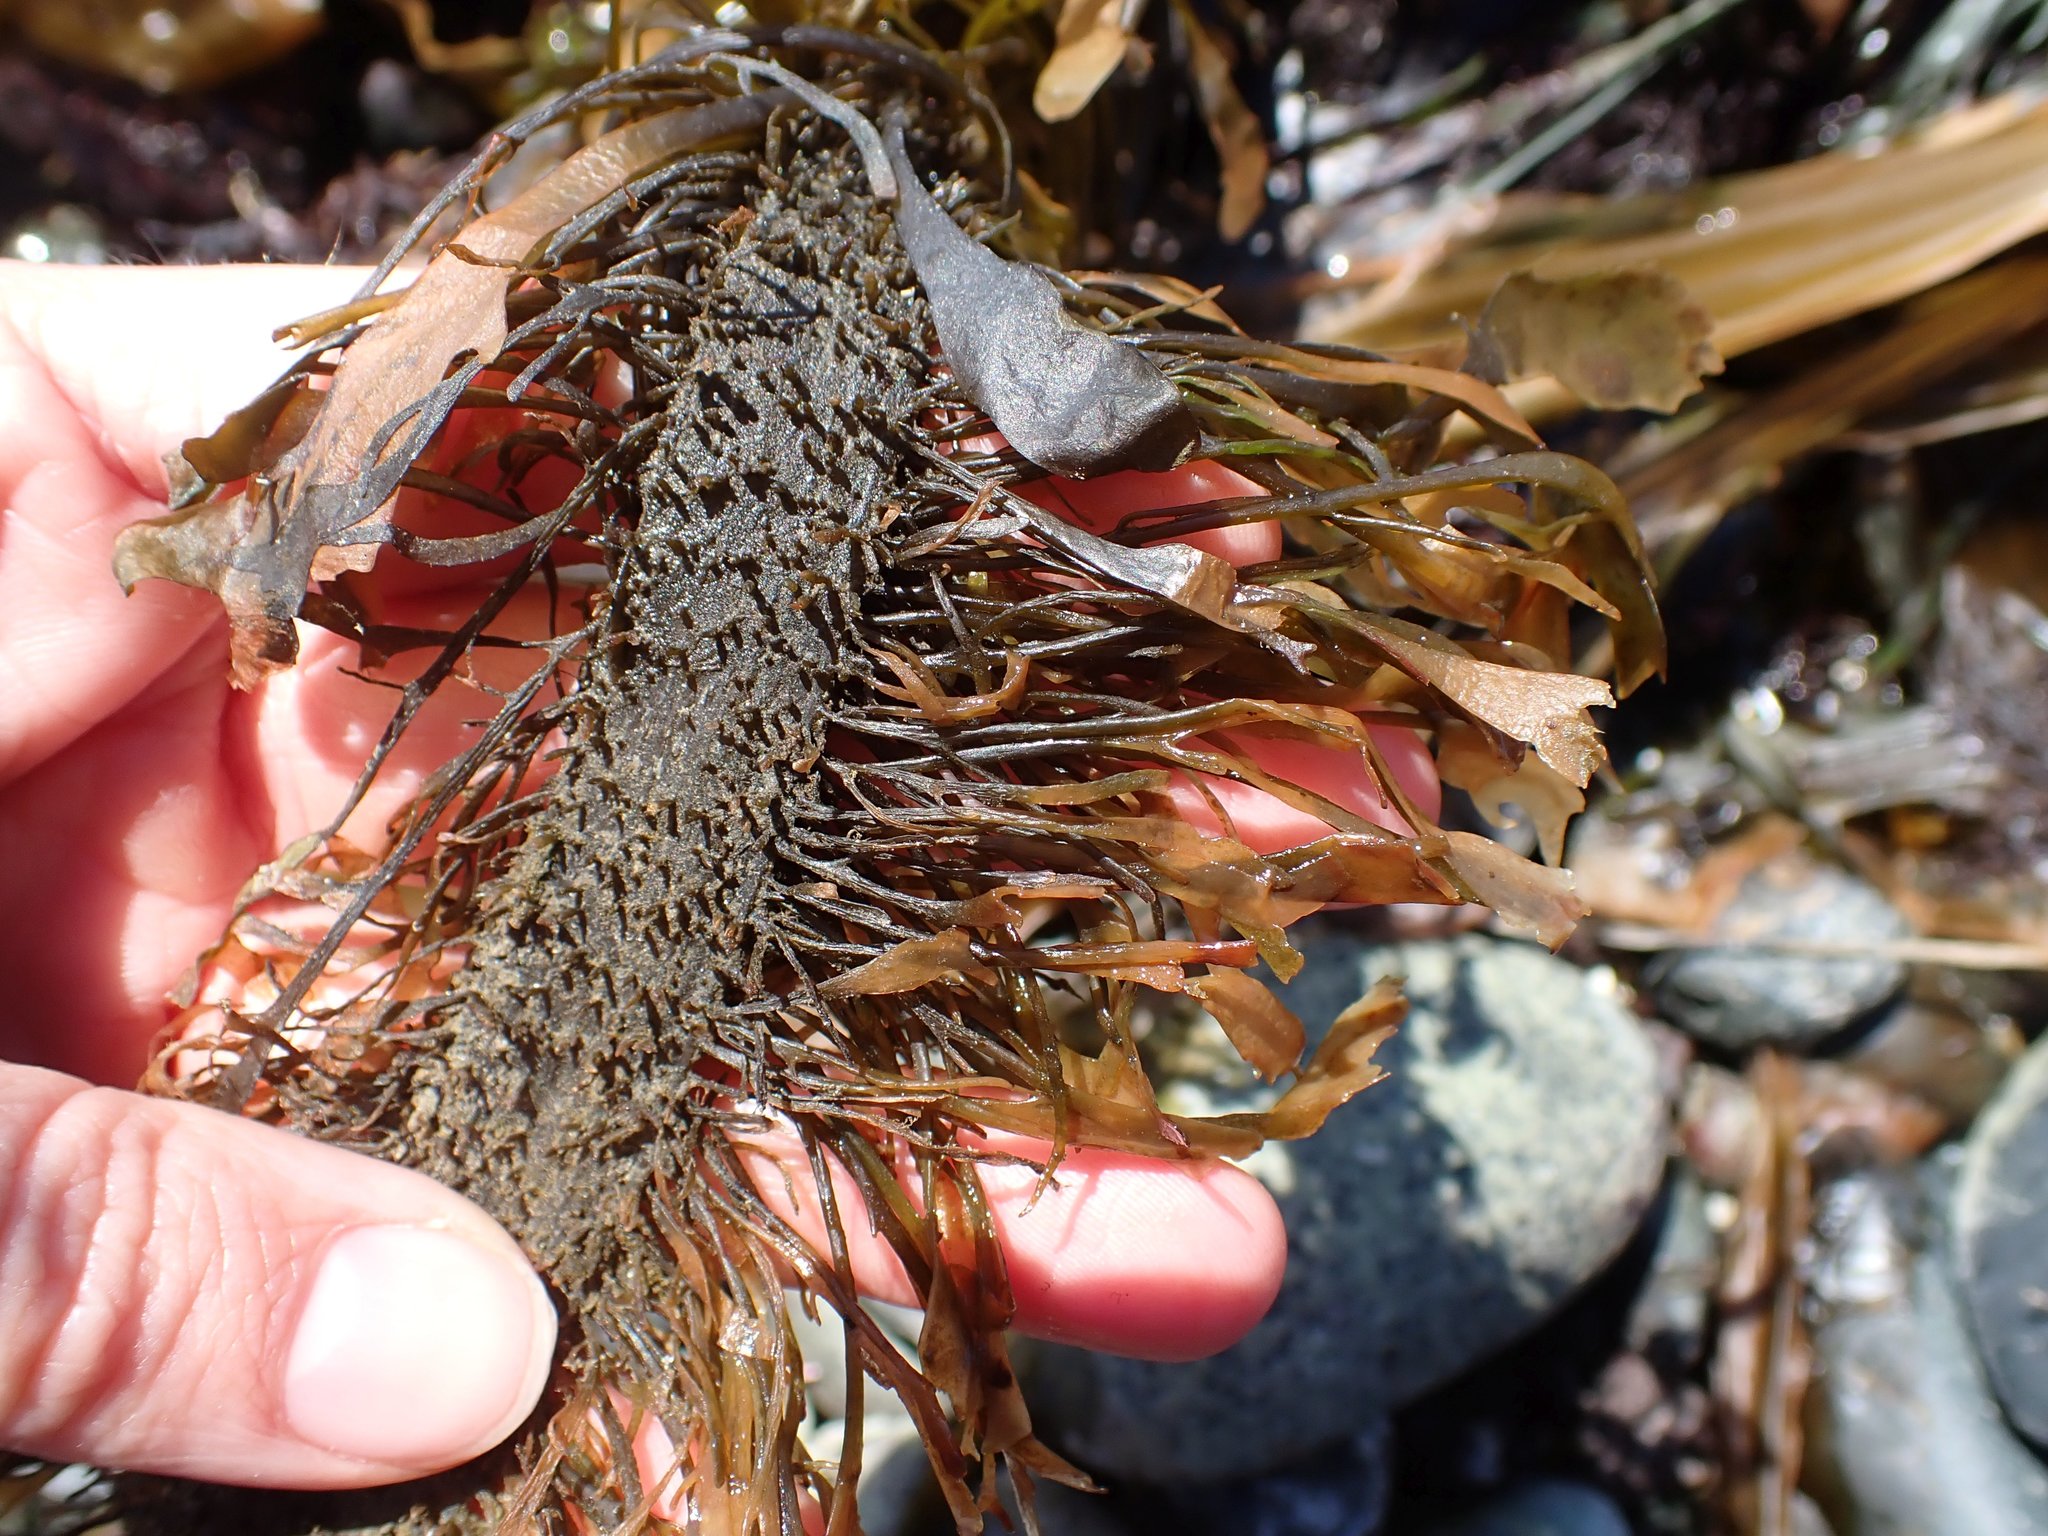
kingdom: Chromista
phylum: Ochrophyta
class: Phaeophyceae
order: Laminariales
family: Lessoniaceae
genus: Egregia
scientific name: Egregia menziesii
